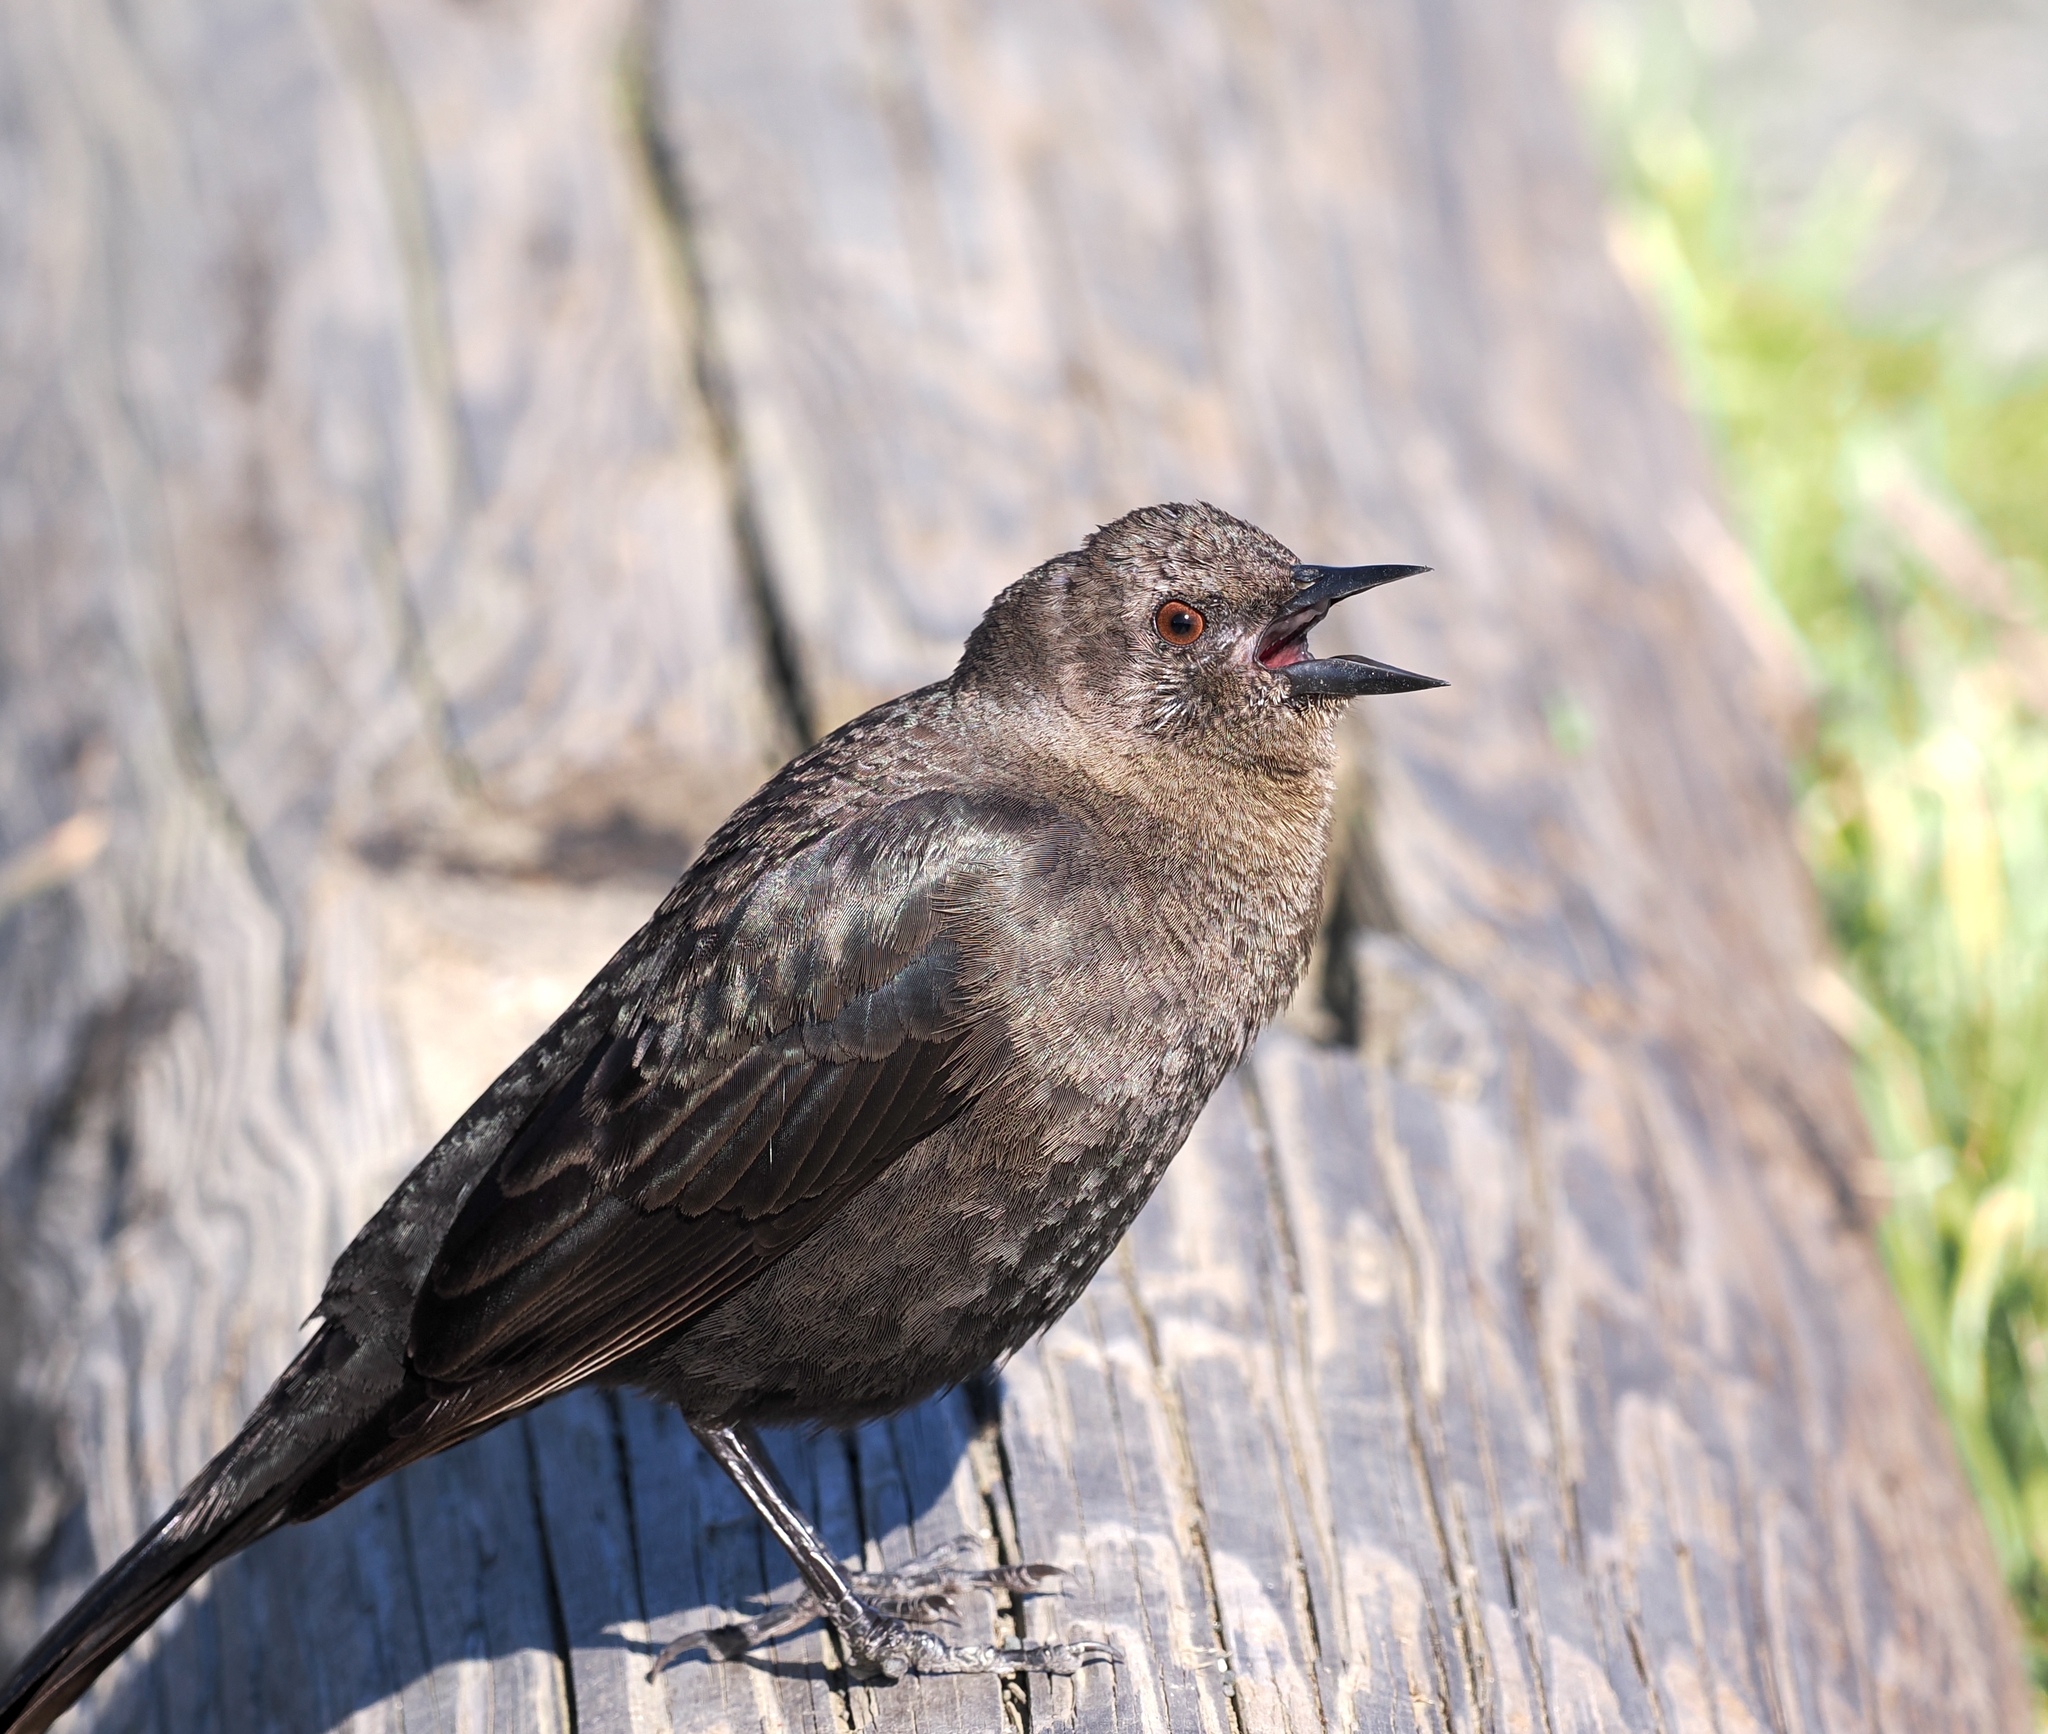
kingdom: Animalia
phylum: Chordata
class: Aves
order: Passeriformes
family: Icteridae
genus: Euphagus
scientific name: Euphagus cyanocephalus
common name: Brewer's blackbird
